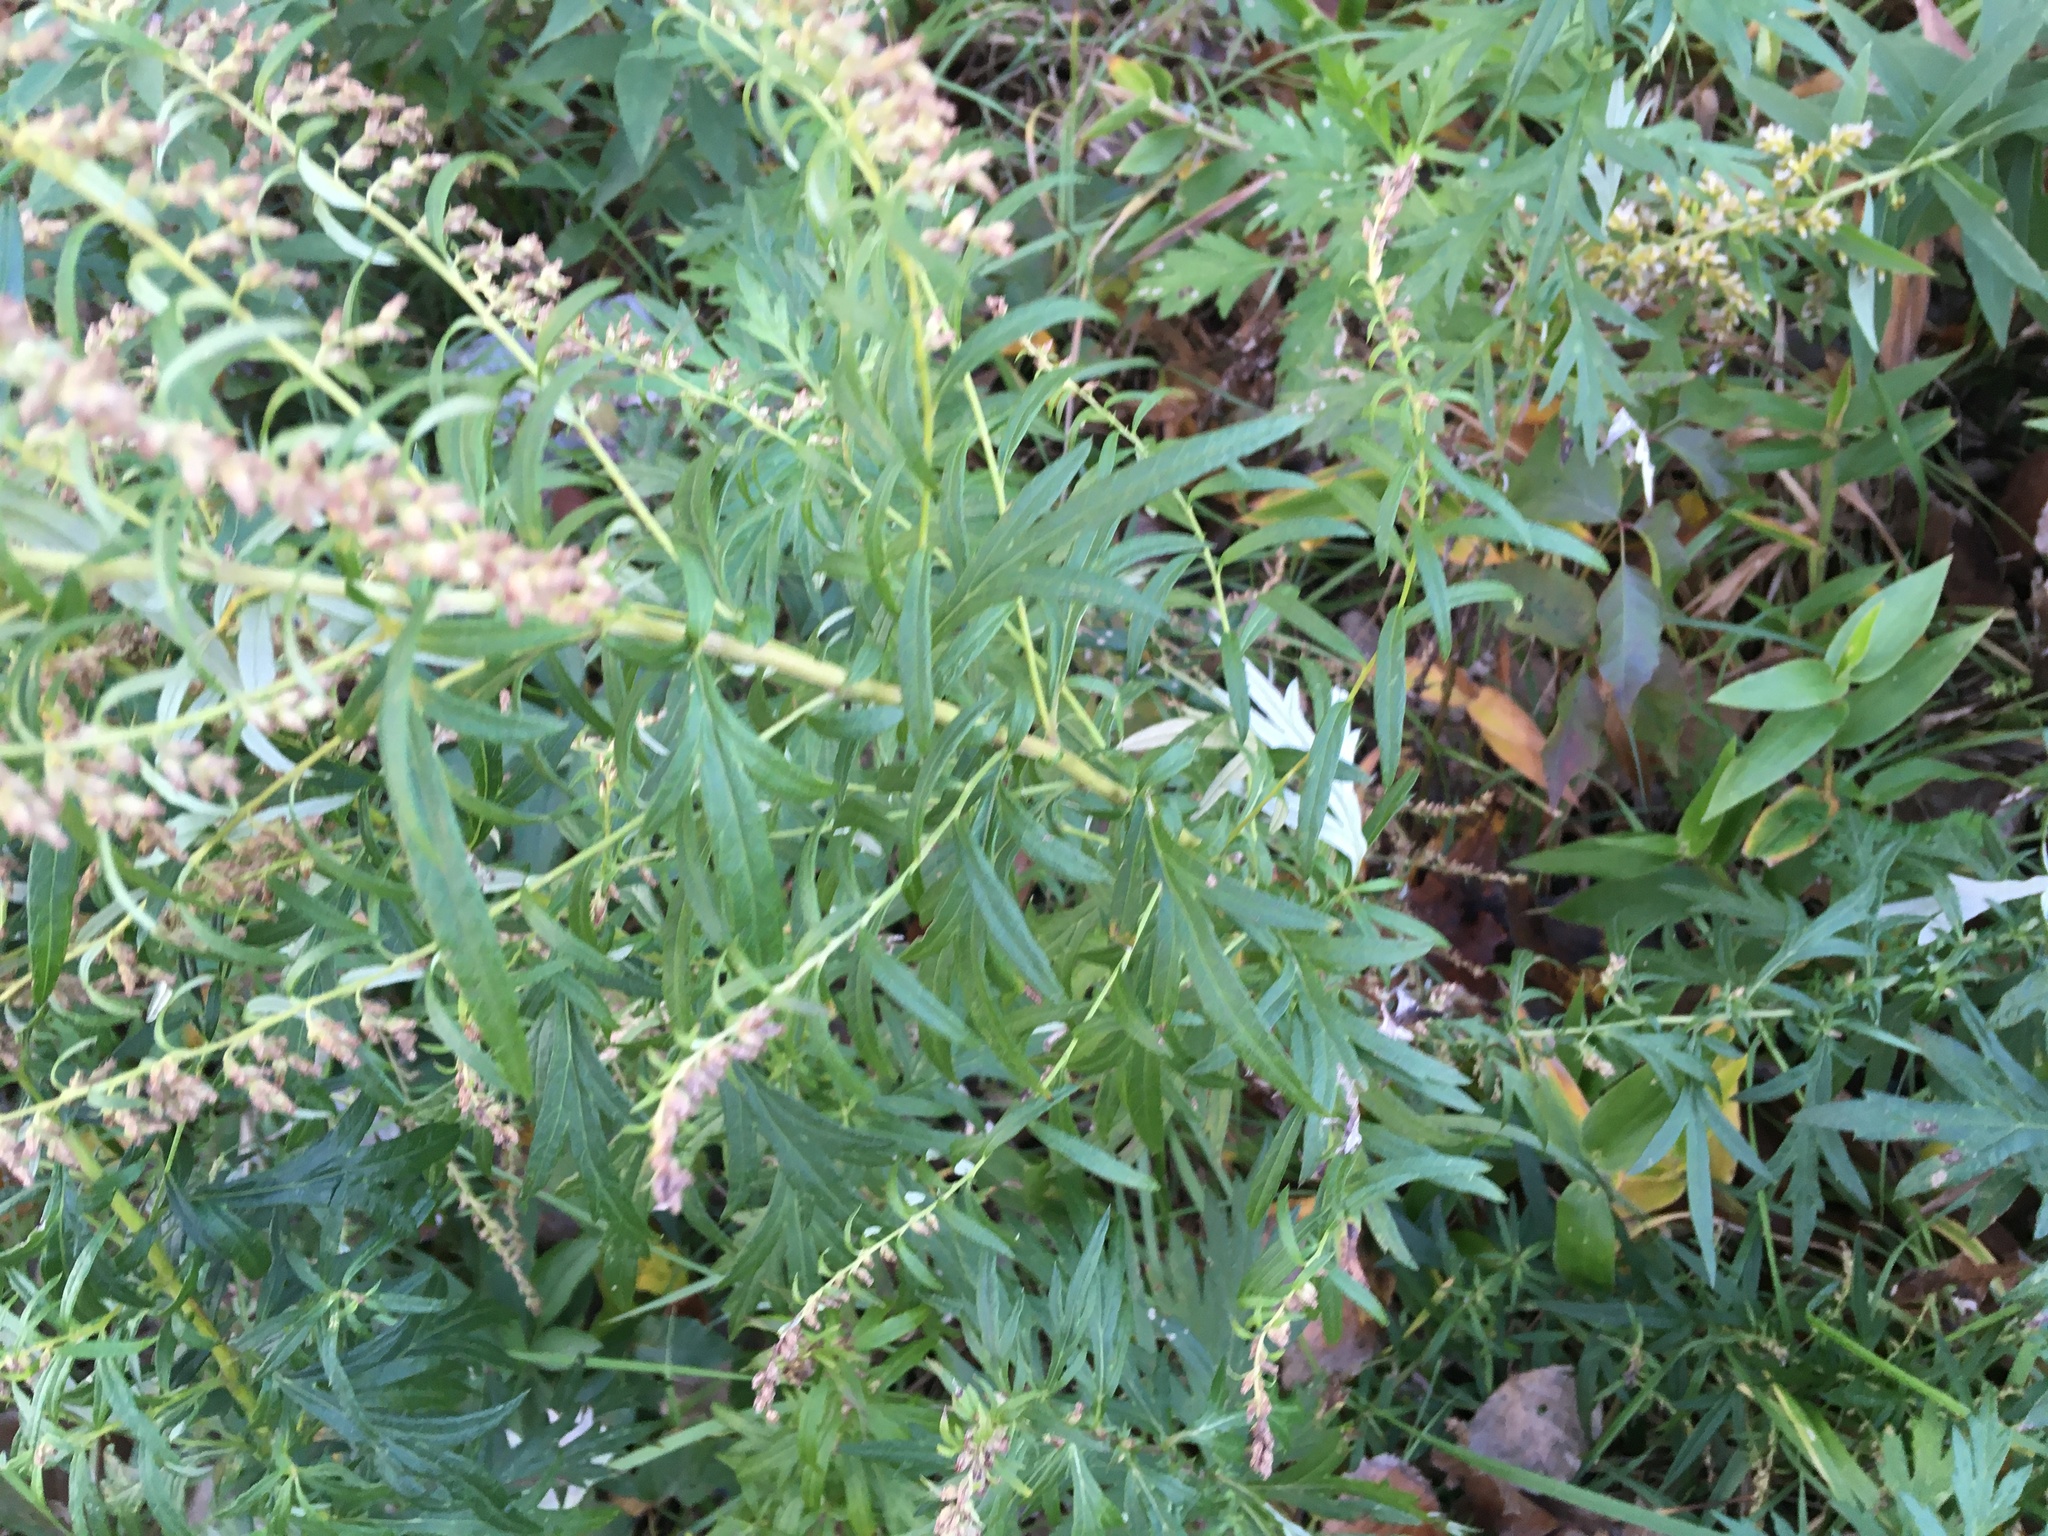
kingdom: Plantae
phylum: Tracheophyta
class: Magnoliopsida
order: Asterales
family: Asteraceae
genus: Artemisia
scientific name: Artemisia vulgaris
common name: Mugwort
